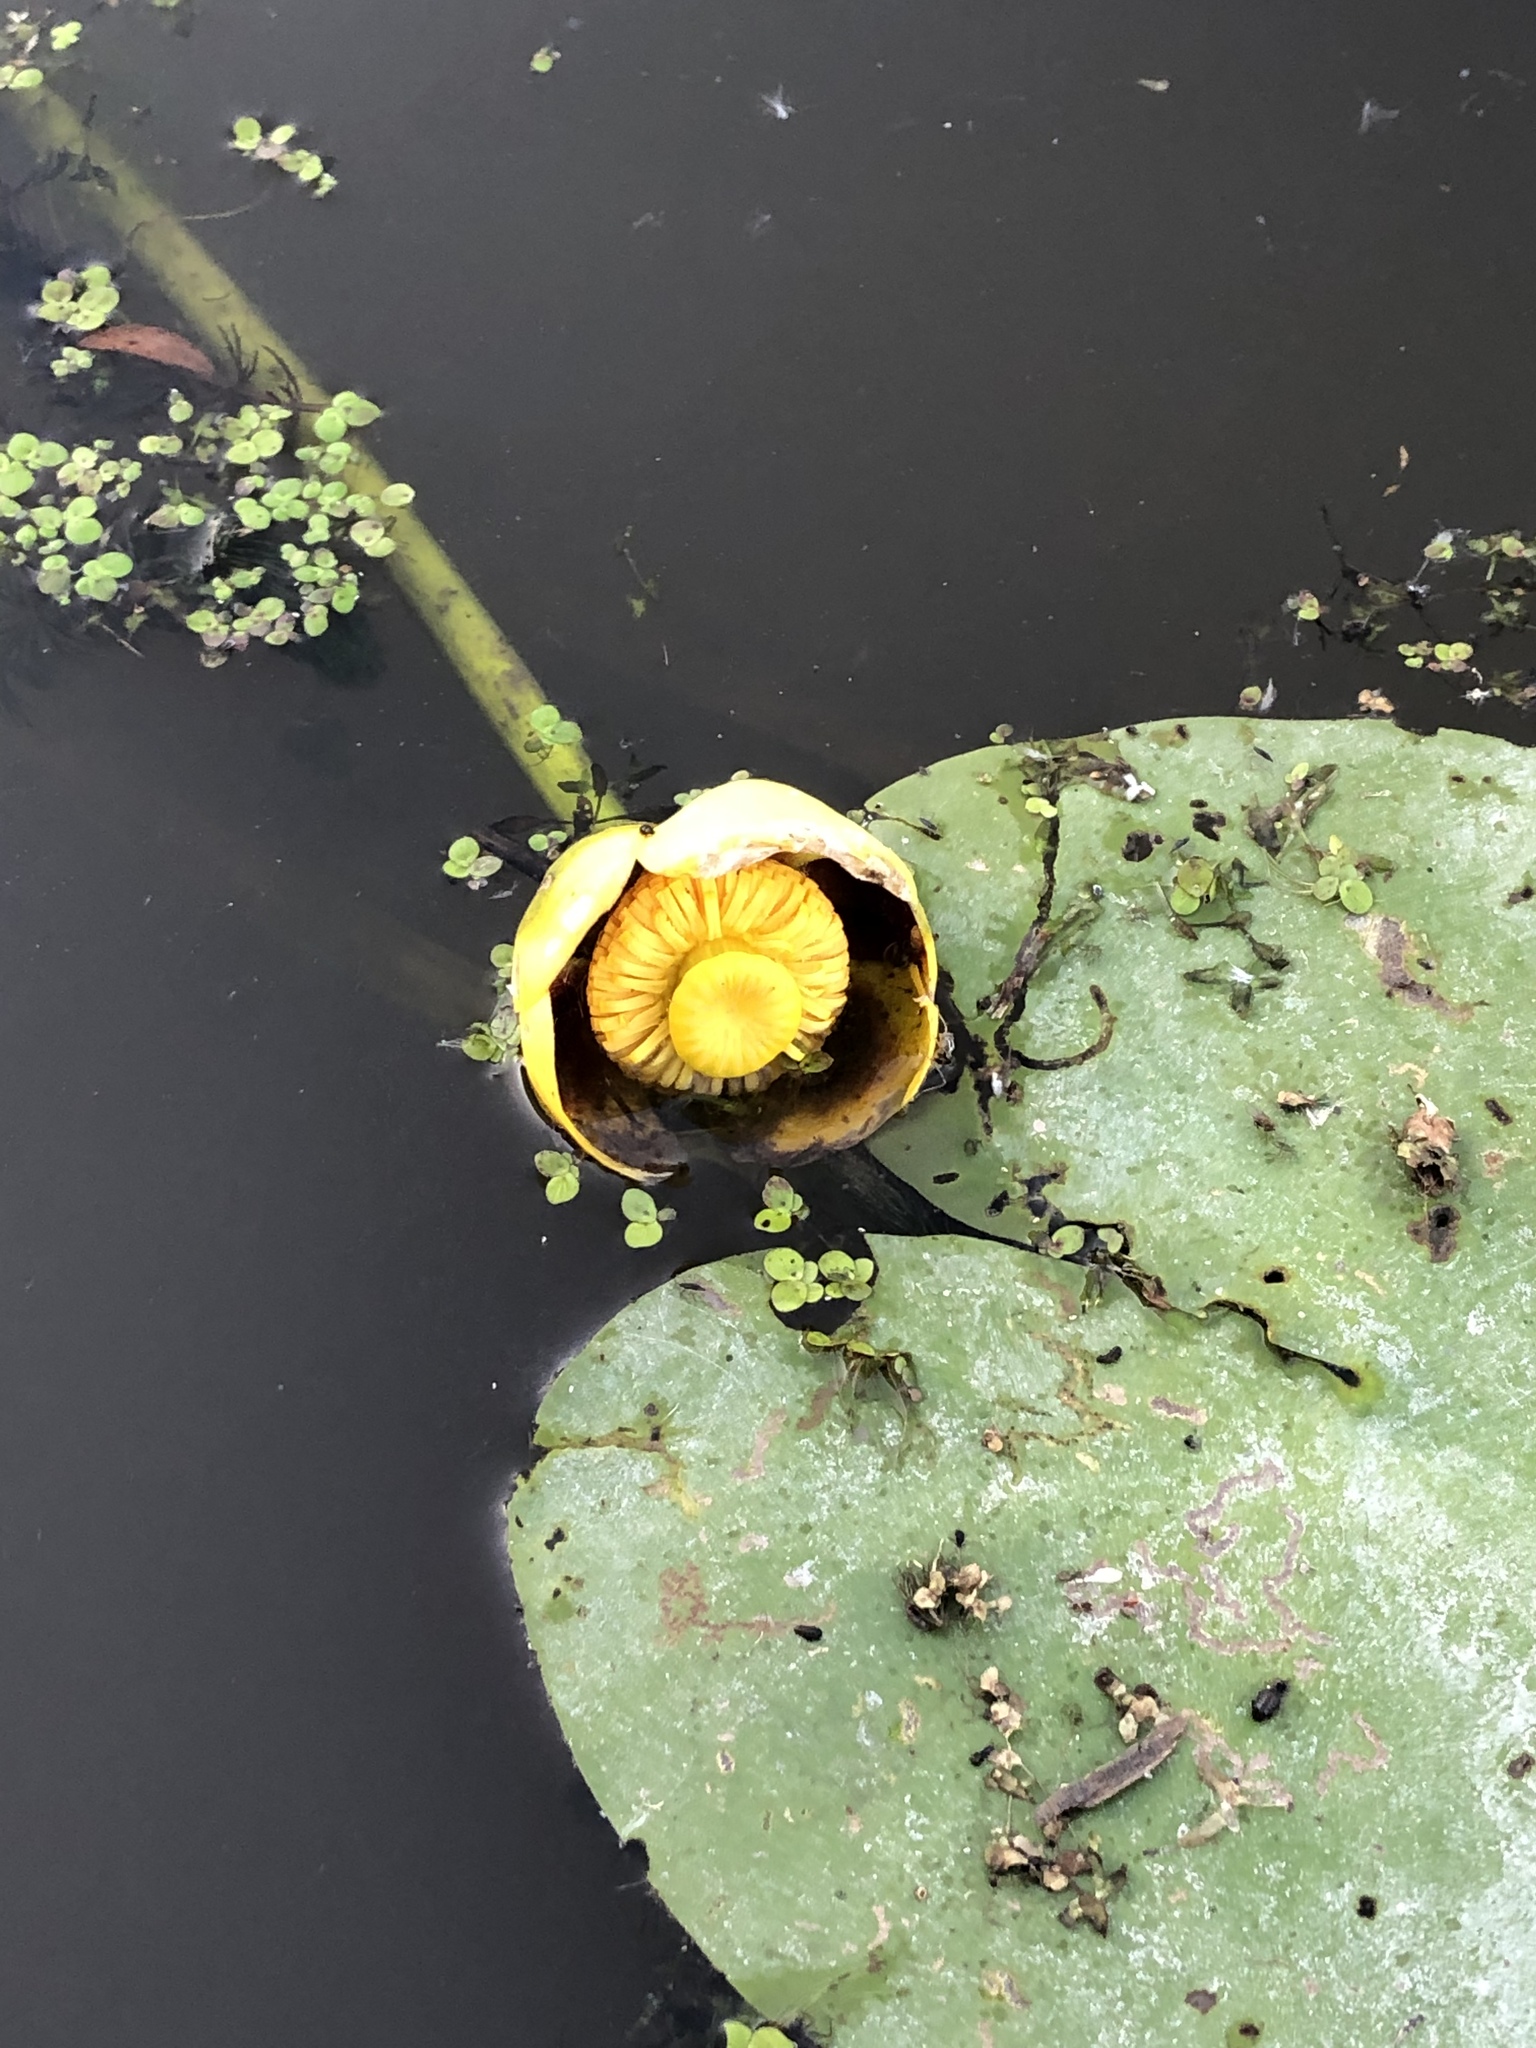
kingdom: Plantae
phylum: Tracheophyta
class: Magnoliopsida
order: Nymphaeales
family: Nymphaeaceae
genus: Nuphar
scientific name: Nuphar variegata
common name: Beaver-root
